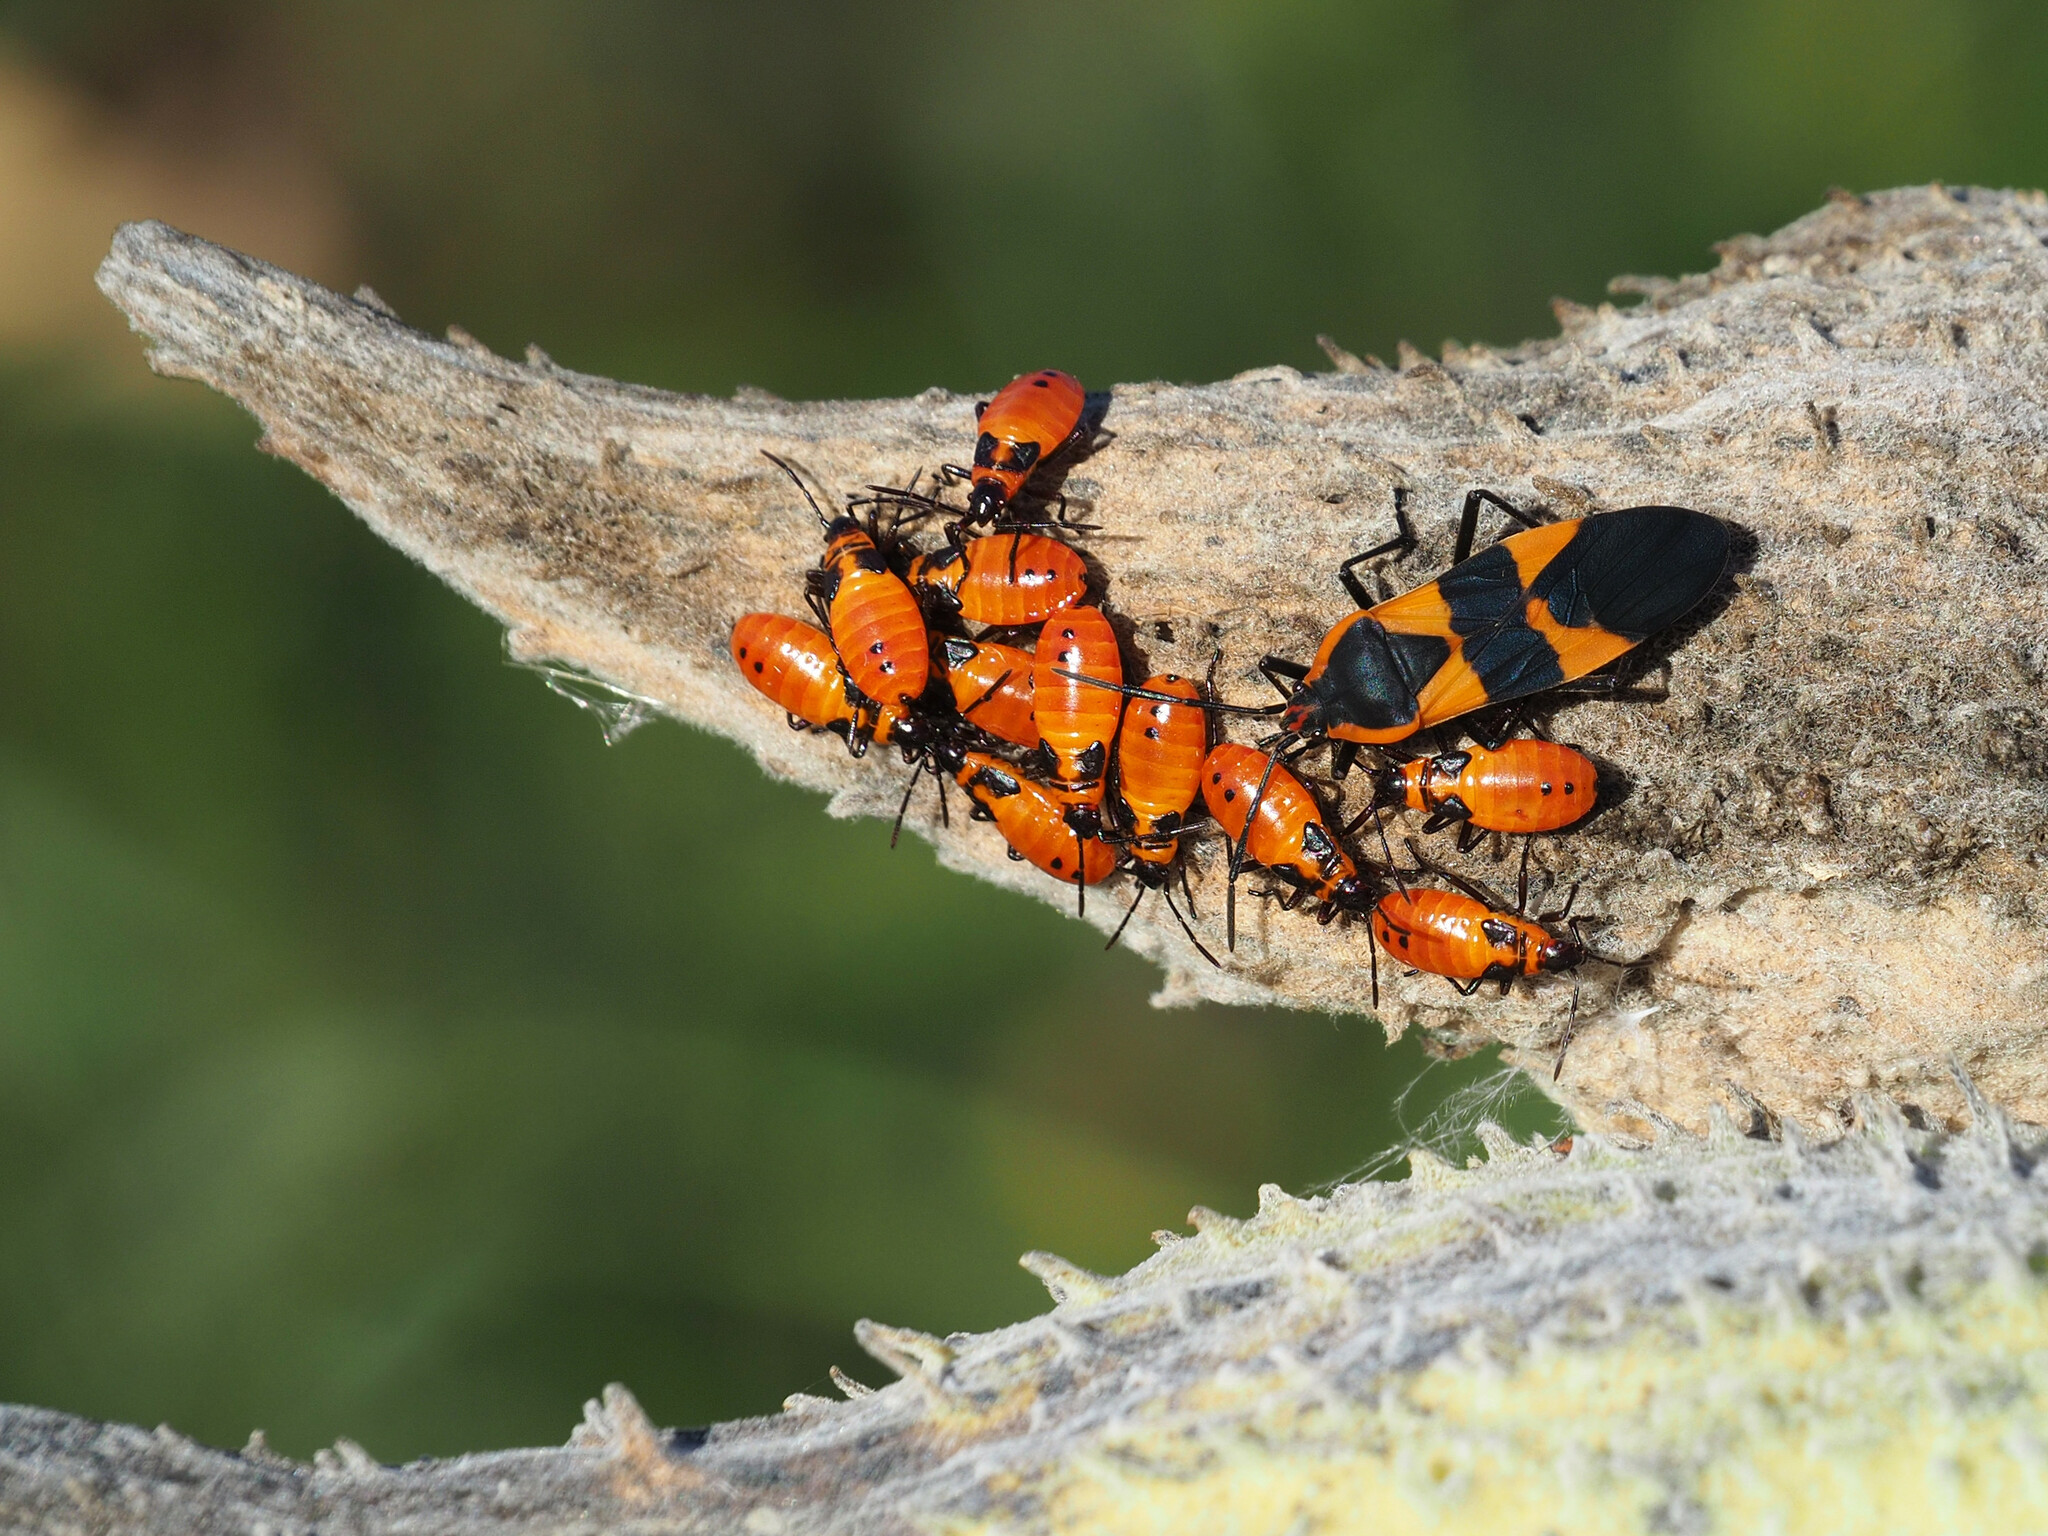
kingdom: Animalia
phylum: Arthropoda
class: Insecta
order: Hemiptera
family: Lygaeidae
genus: Oncopeltus
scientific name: Oncopeltus fasciatus
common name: Large milkweed bug
